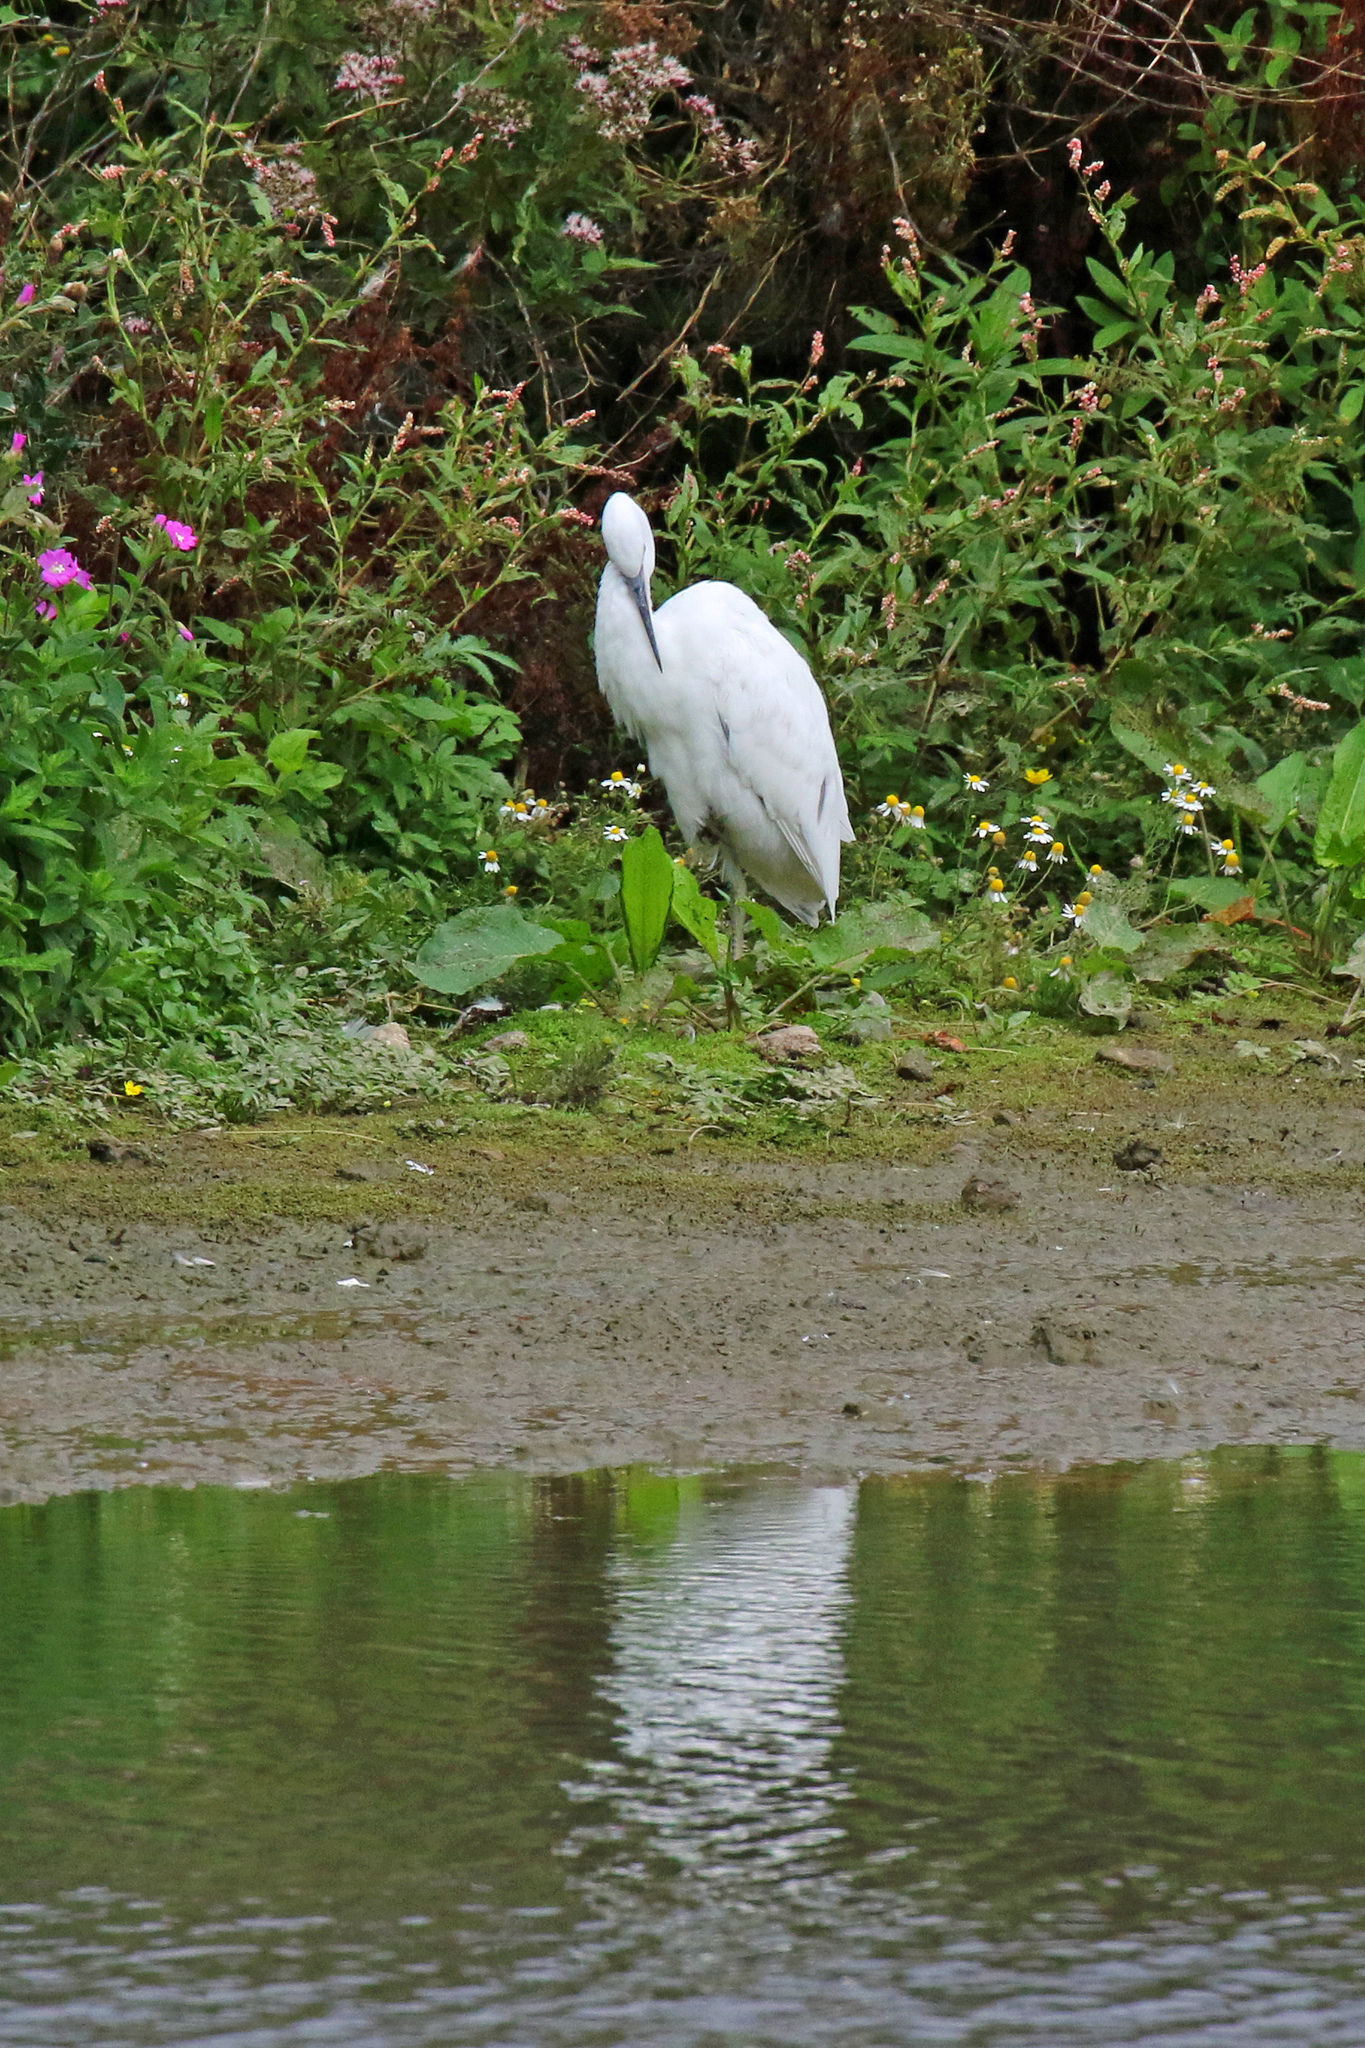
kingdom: Animalia
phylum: Chordata
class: Aves
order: Pelecaniformes
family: Ardeidae
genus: Ardea
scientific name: Ardea alba
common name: Great egret
